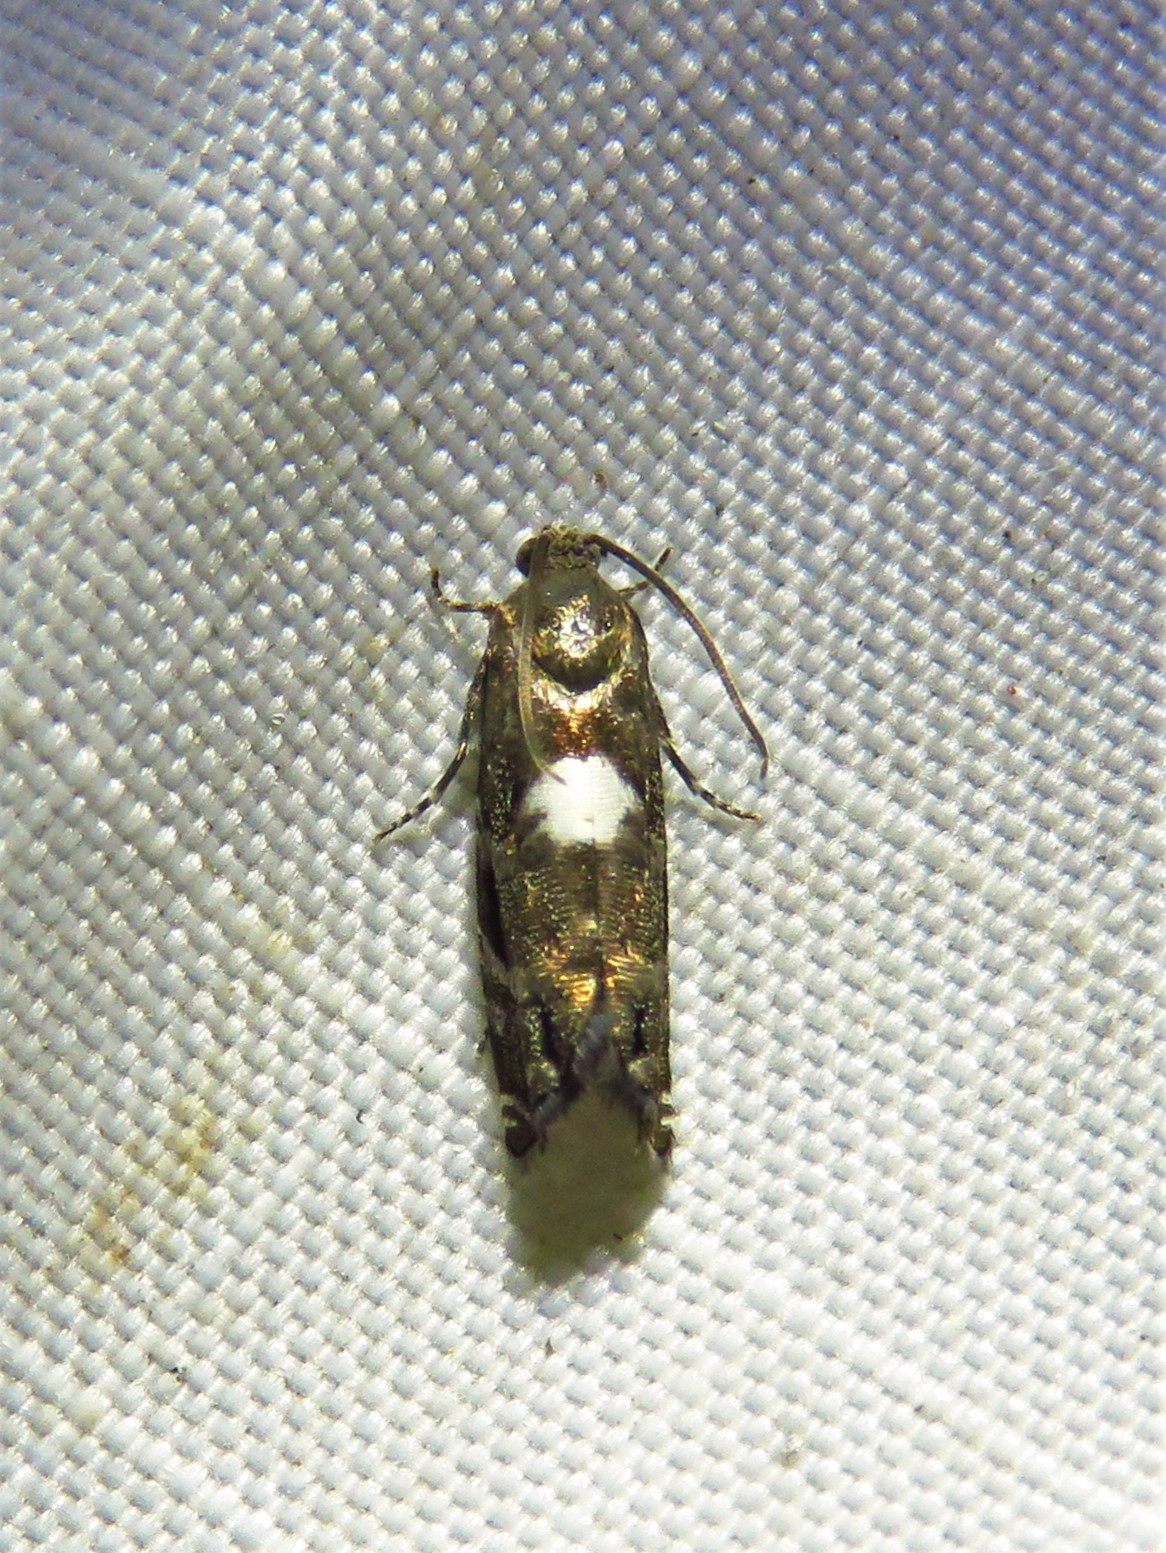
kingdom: Animalia
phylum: Arthropoda
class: Insecta
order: Lepidoptera
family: Tortricidae
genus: Cydia
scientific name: Cydia albimaculana
